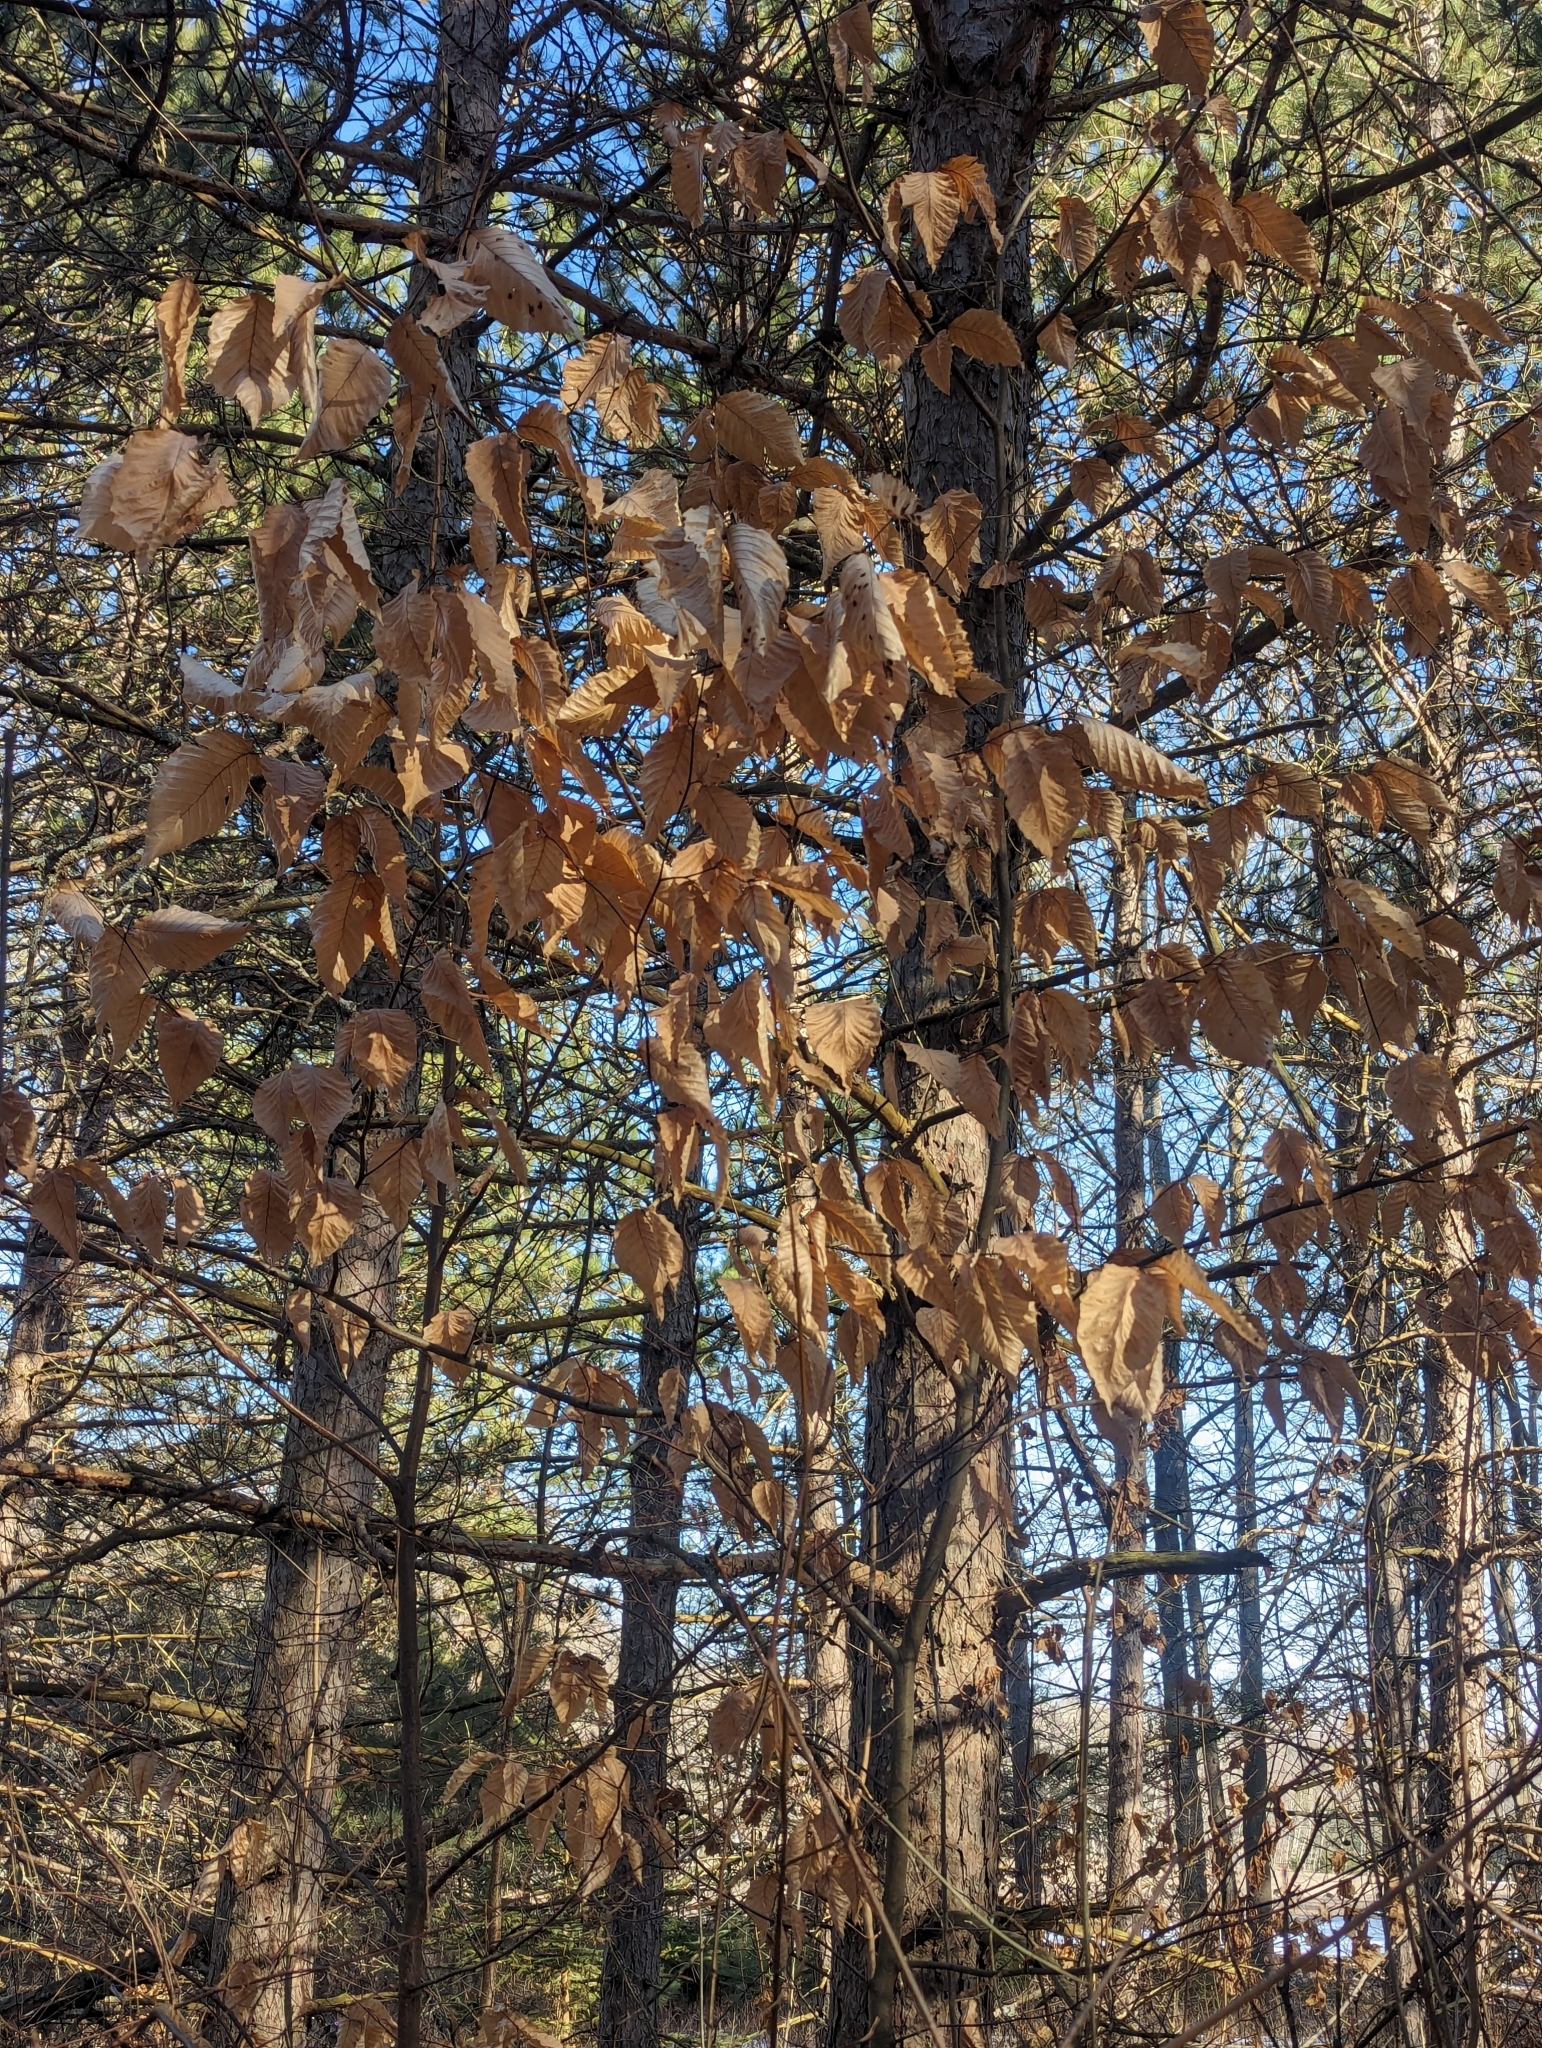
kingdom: Plantae
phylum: Tracheophyta
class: Magnoliopsida
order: Fagales
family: Fagaceae
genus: Fagus
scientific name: Fagus grandifolia
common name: American beech
